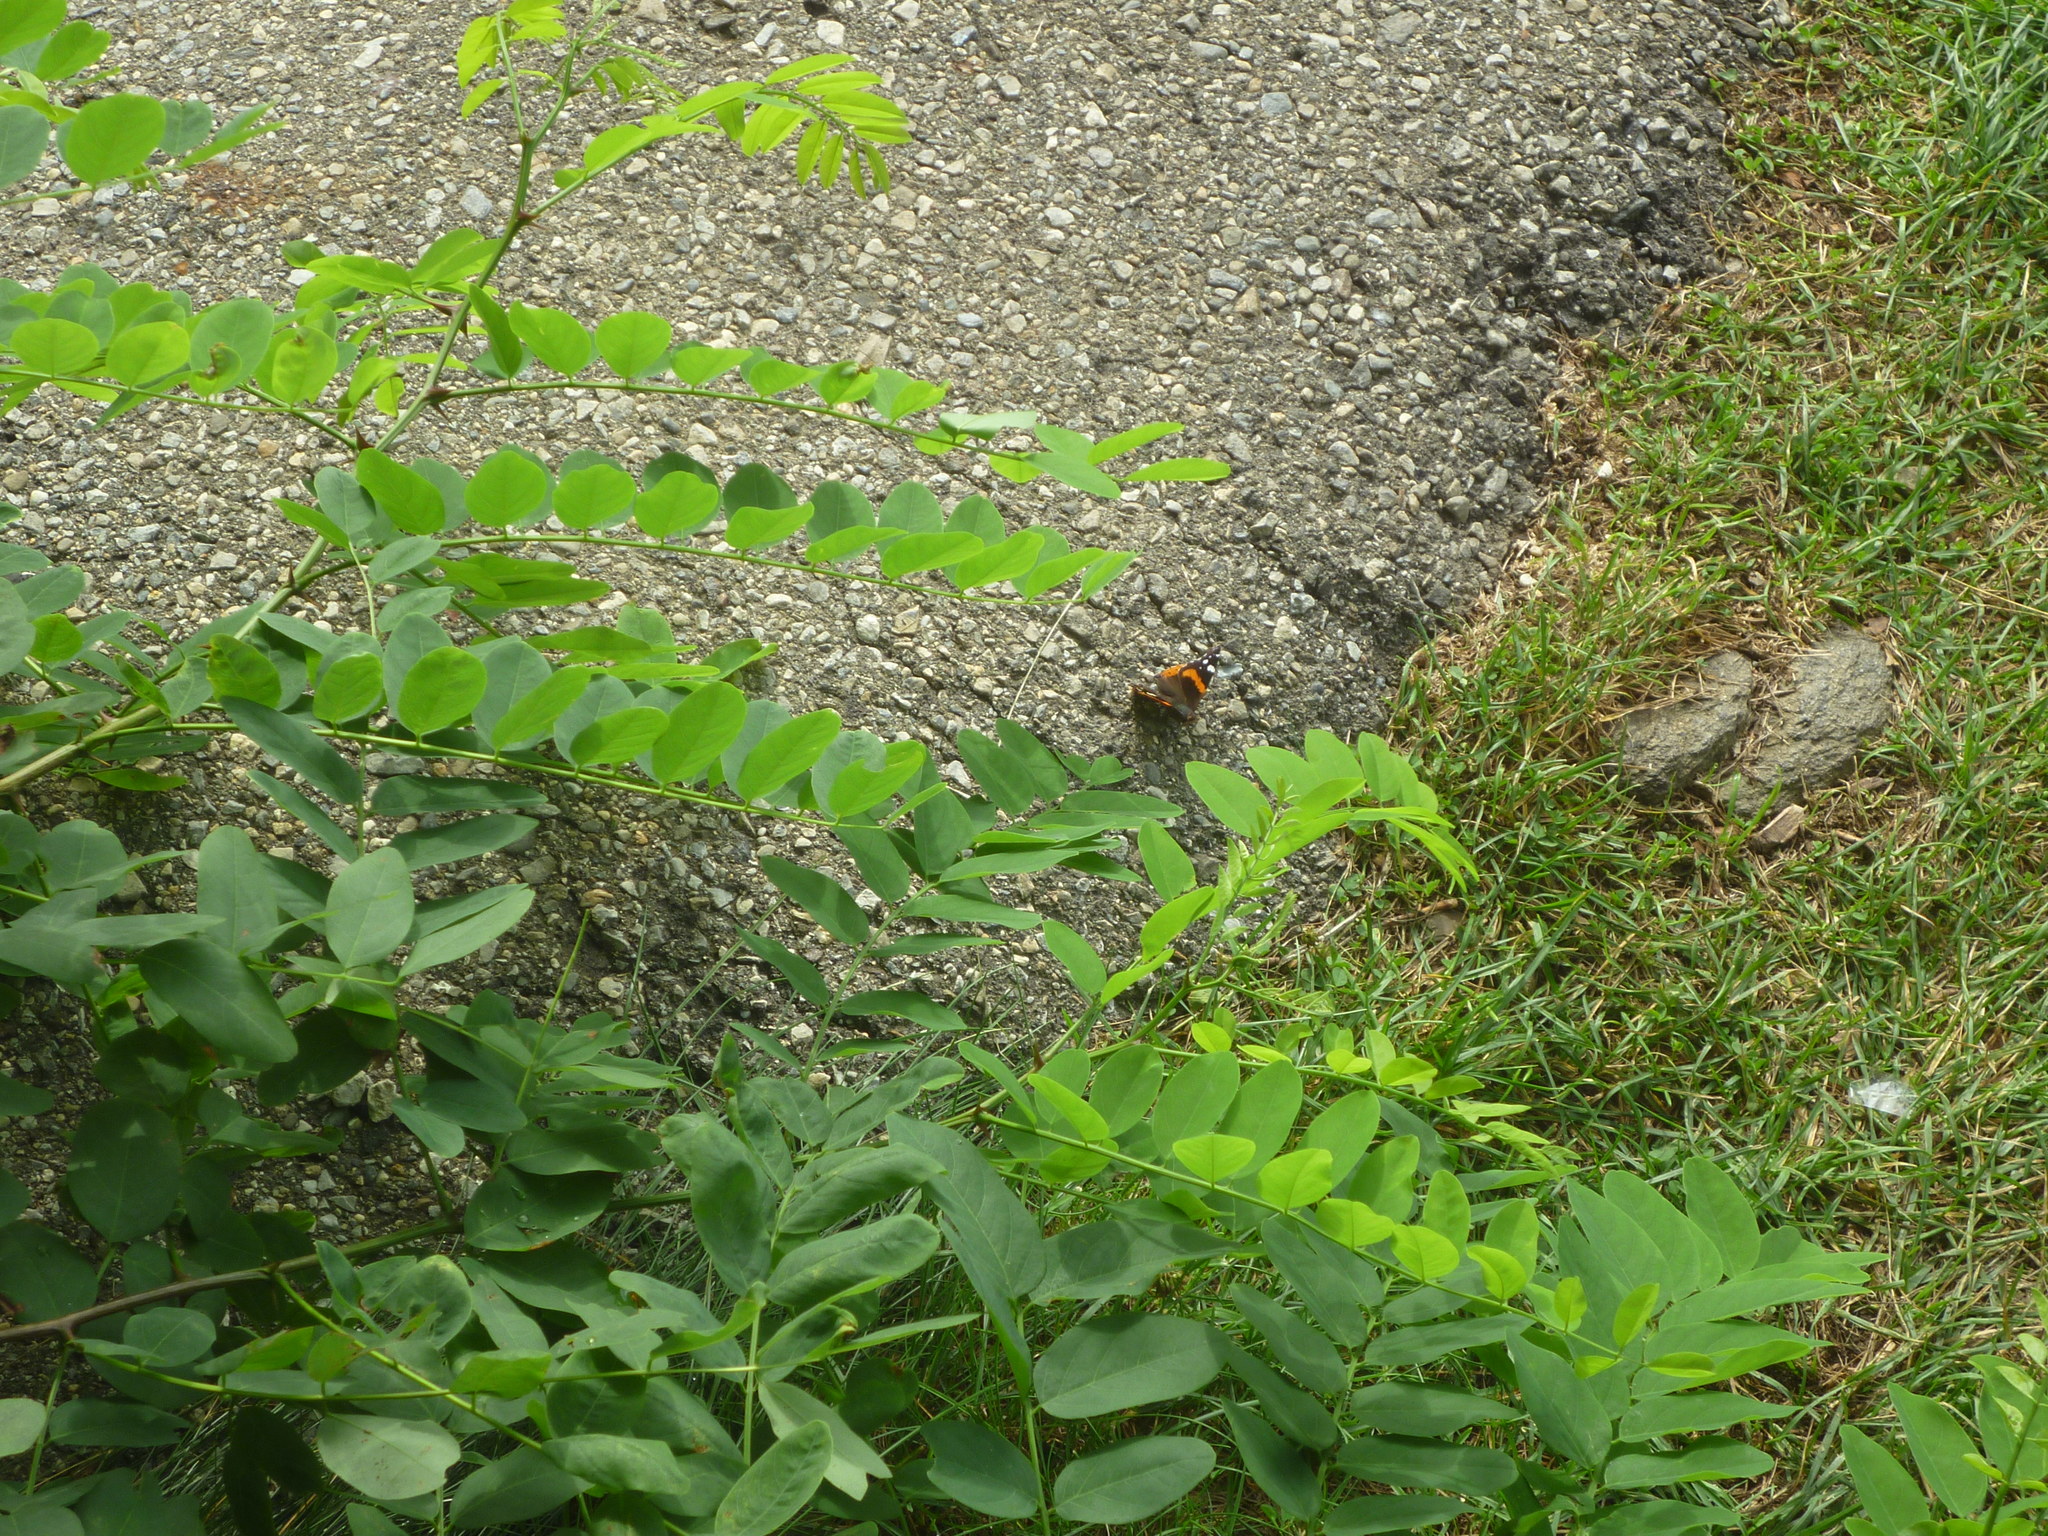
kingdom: Plantae
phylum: Tracheophyta
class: Magnoliopsida
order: Fabales
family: Fabaceae
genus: Robinia
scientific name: Robinia pseudoacacia
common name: Black locust
